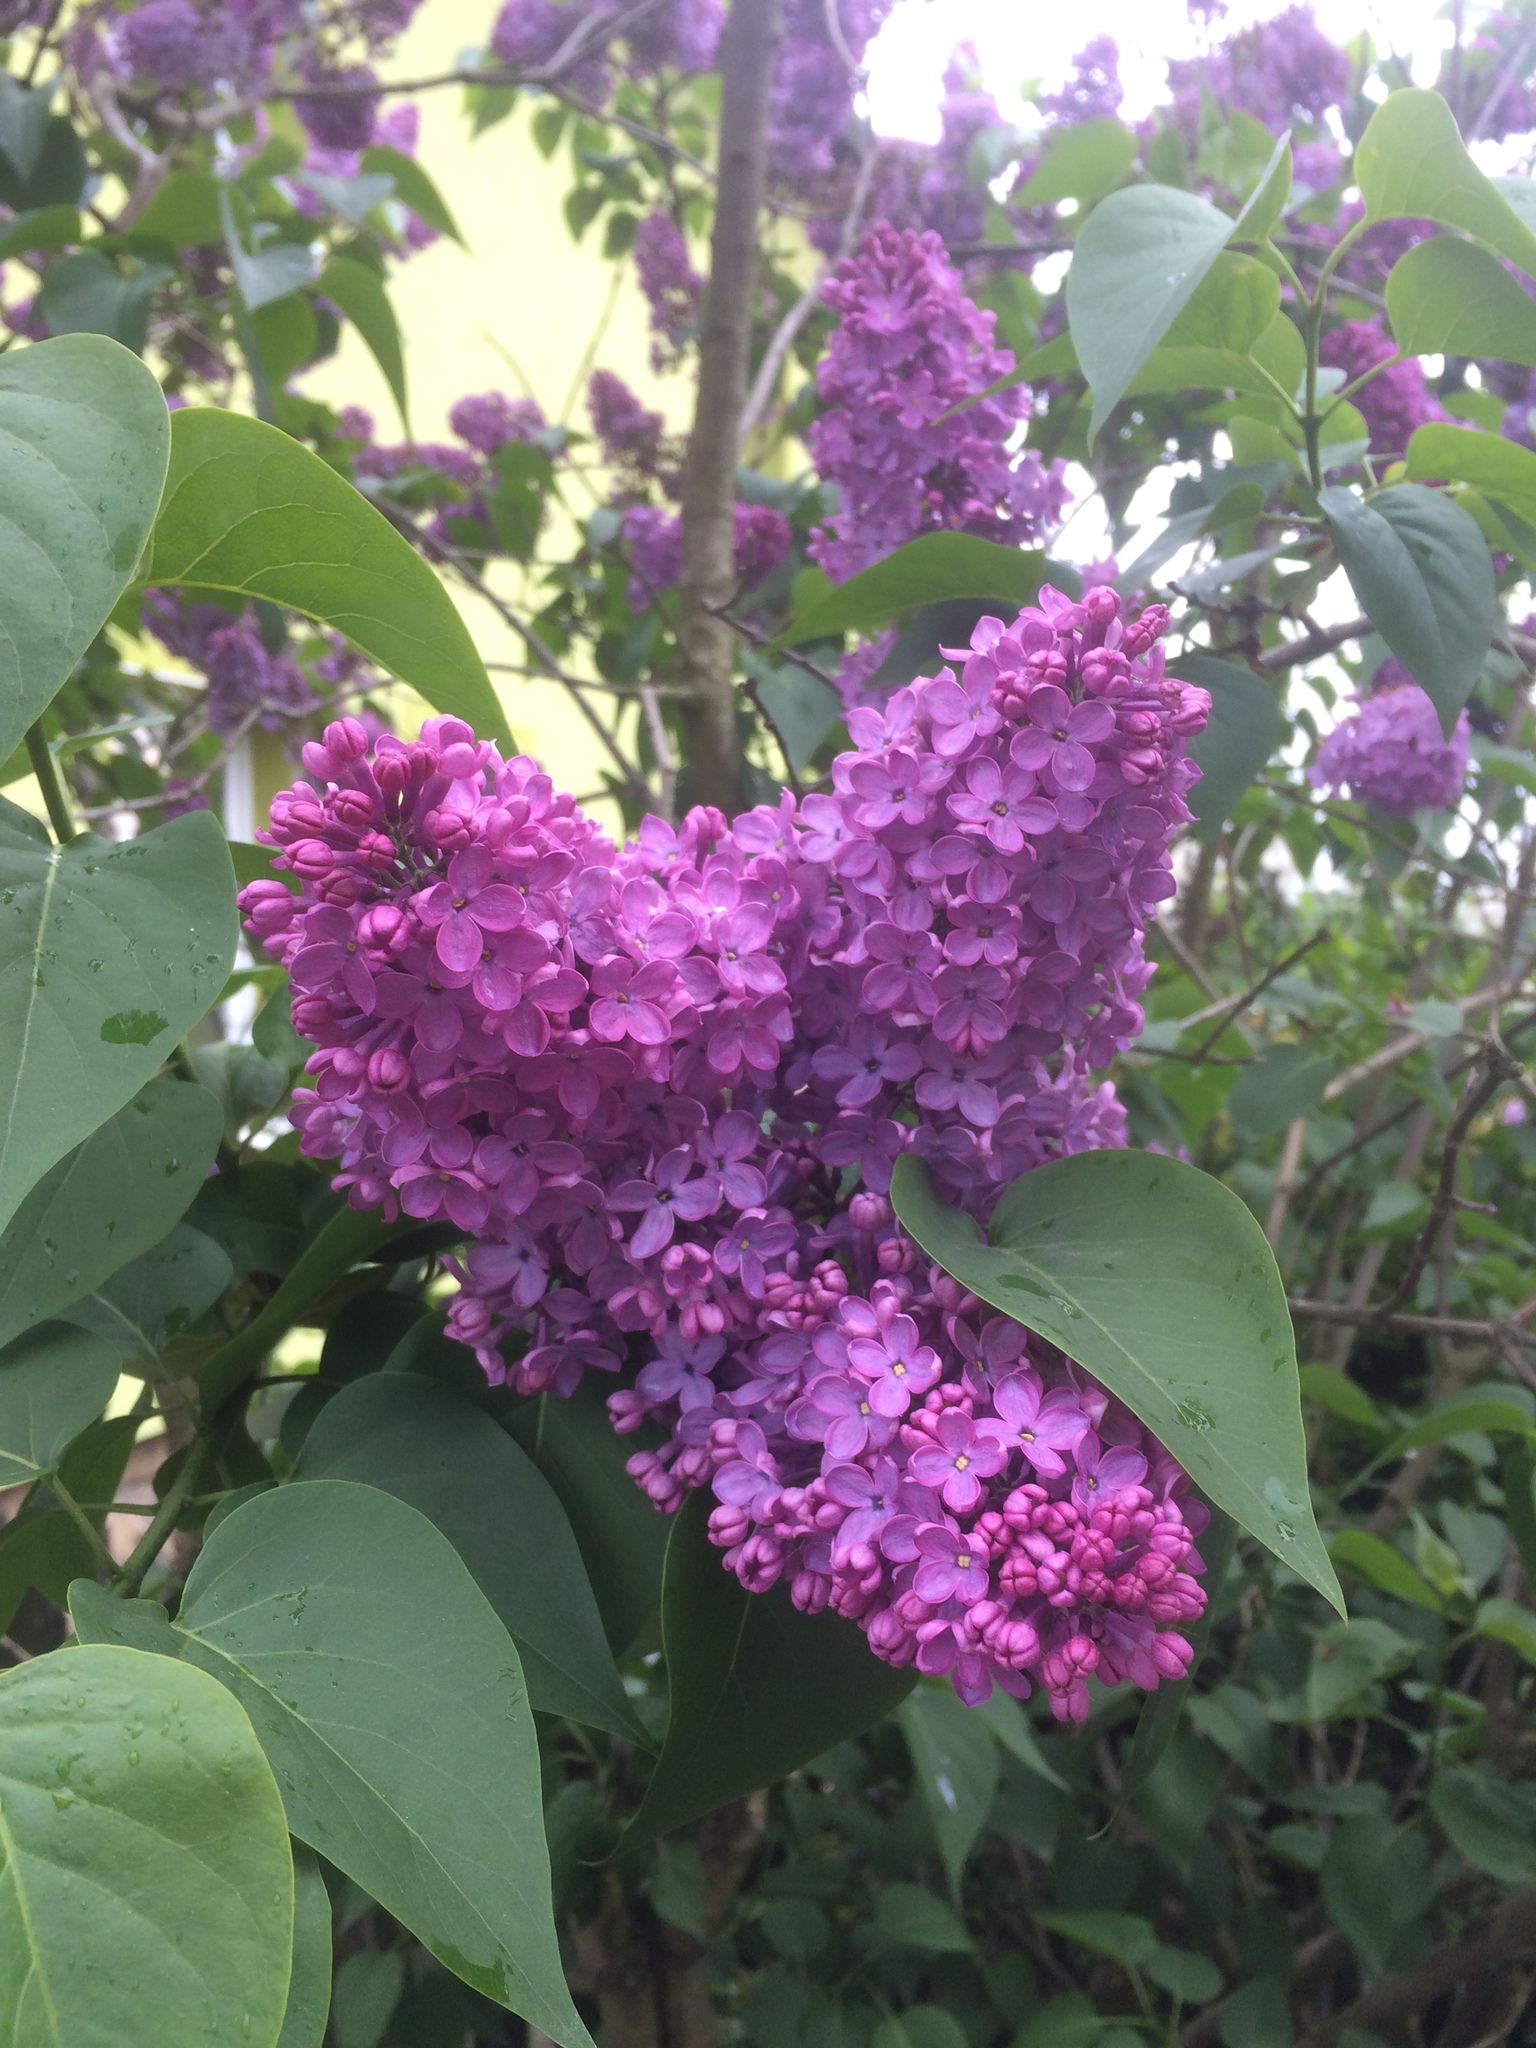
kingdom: Plantae
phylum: Tracheophyta
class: Magnoliopsida
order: Lamiales
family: Oleaceae
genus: Syringa
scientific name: Syringa vulgaris
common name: Common lilac
